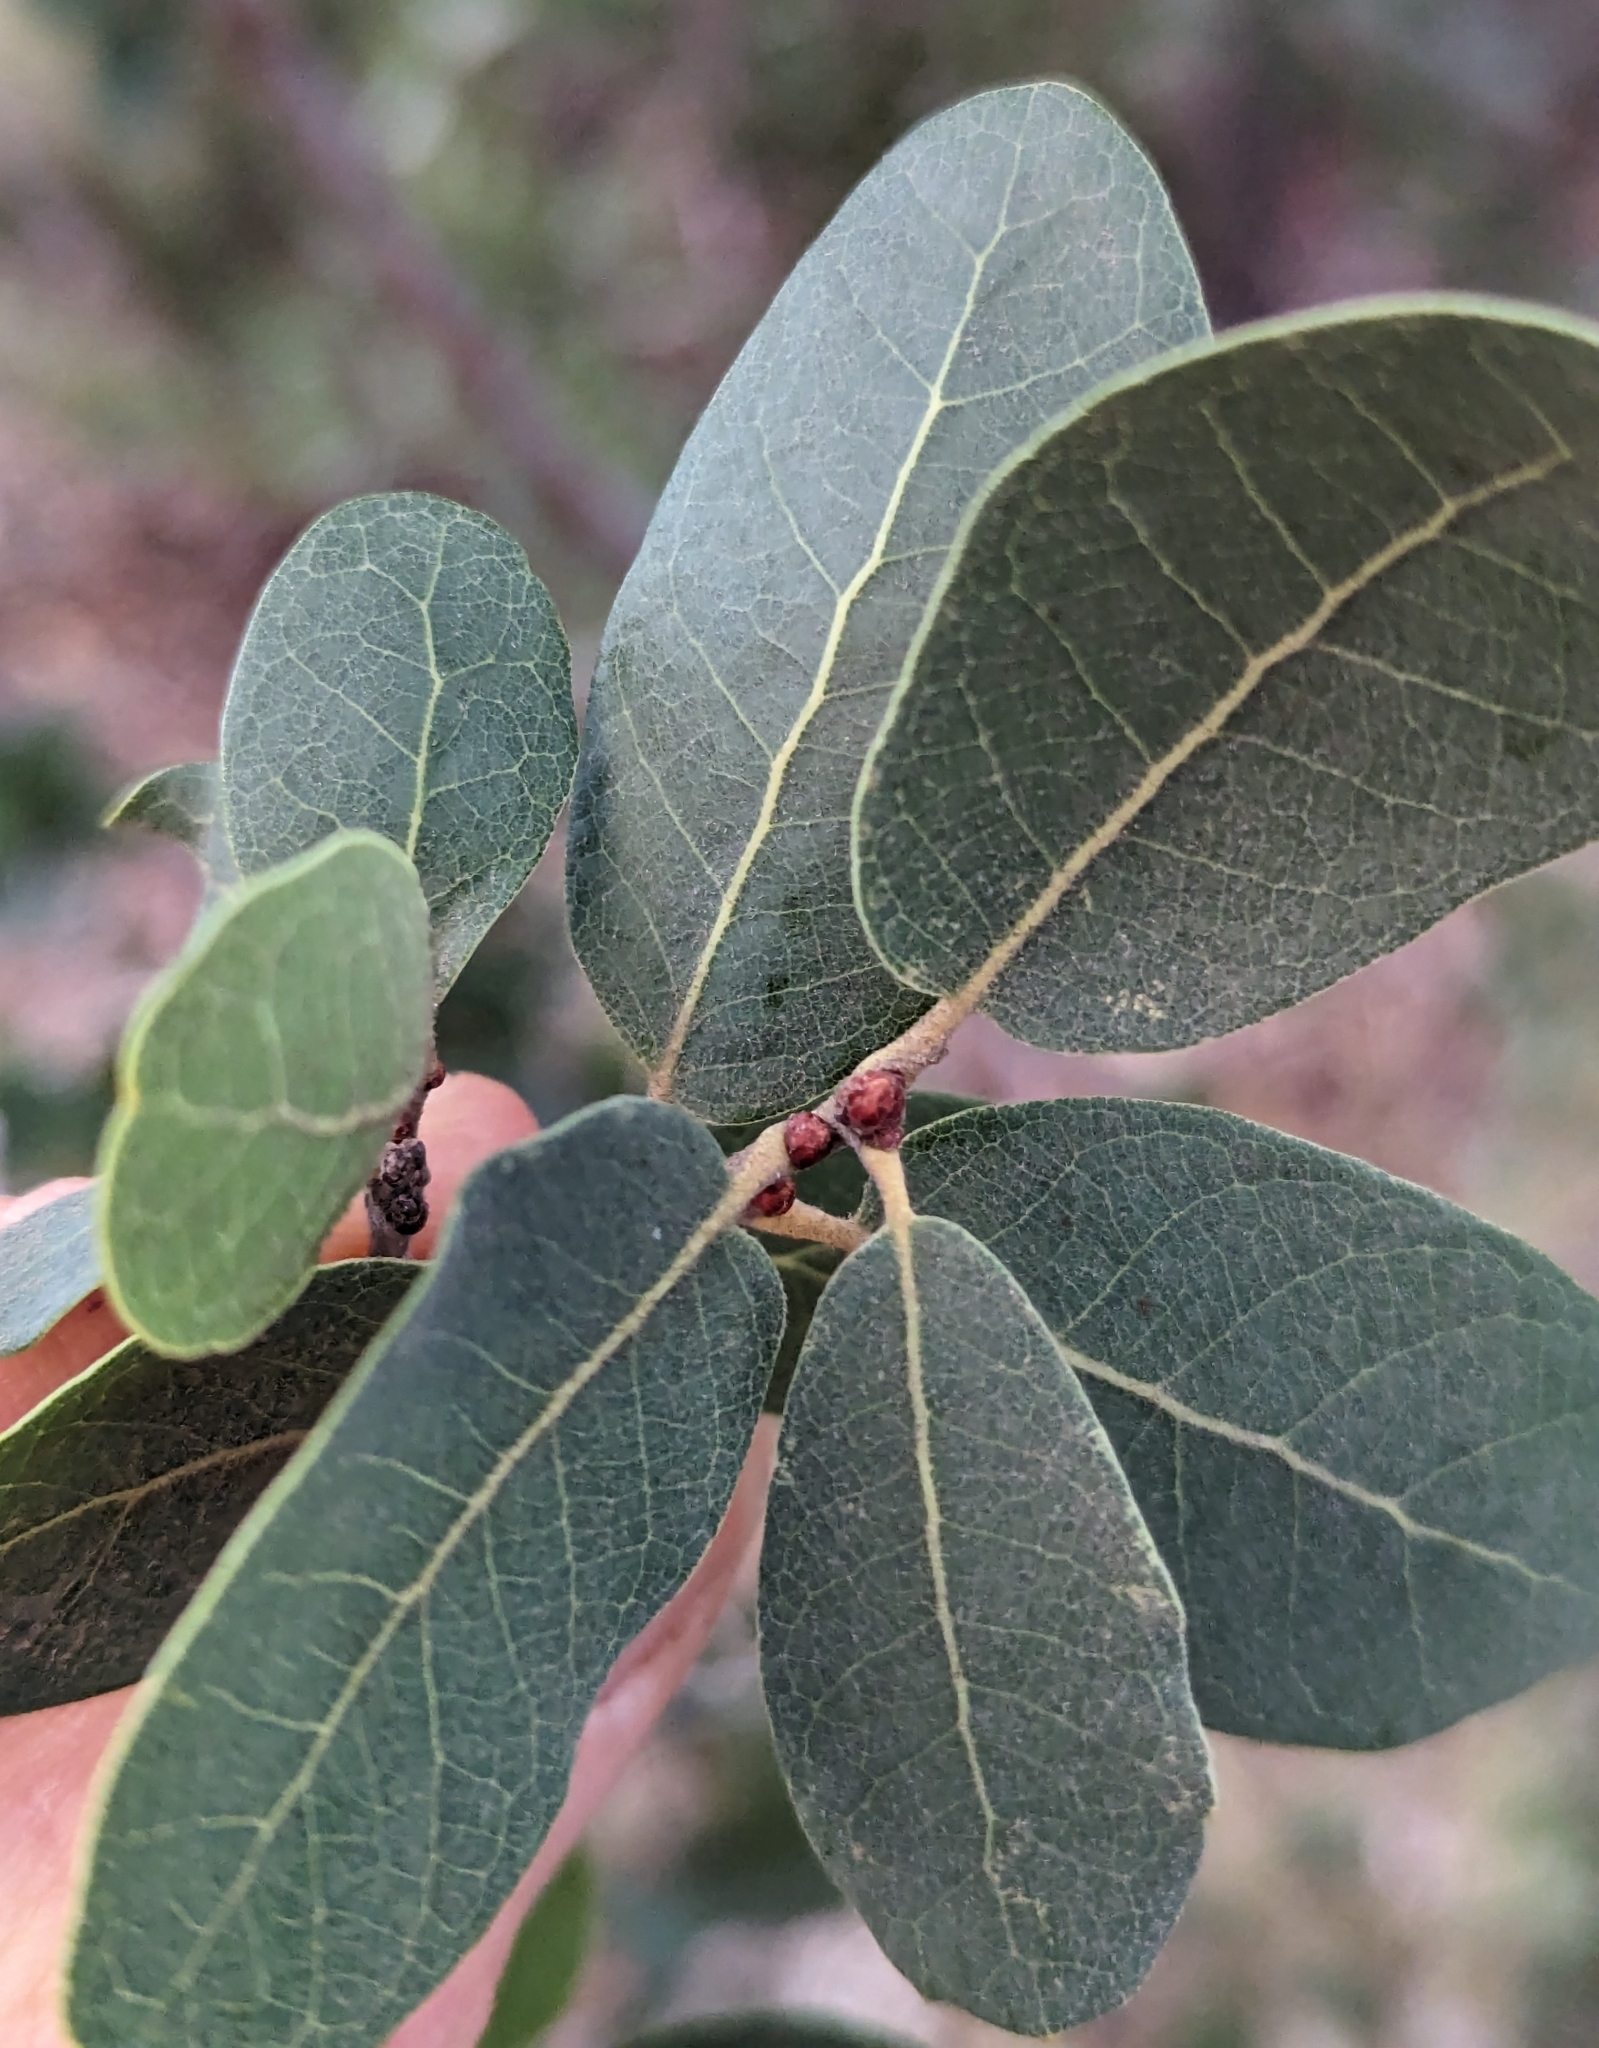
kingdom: Plantae
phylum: Tracheophyta
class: Magnoliopsida
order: Fagales
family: Fagaceae
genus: Quercus
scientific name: Quercus engelmannii
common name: Engelmann oak
